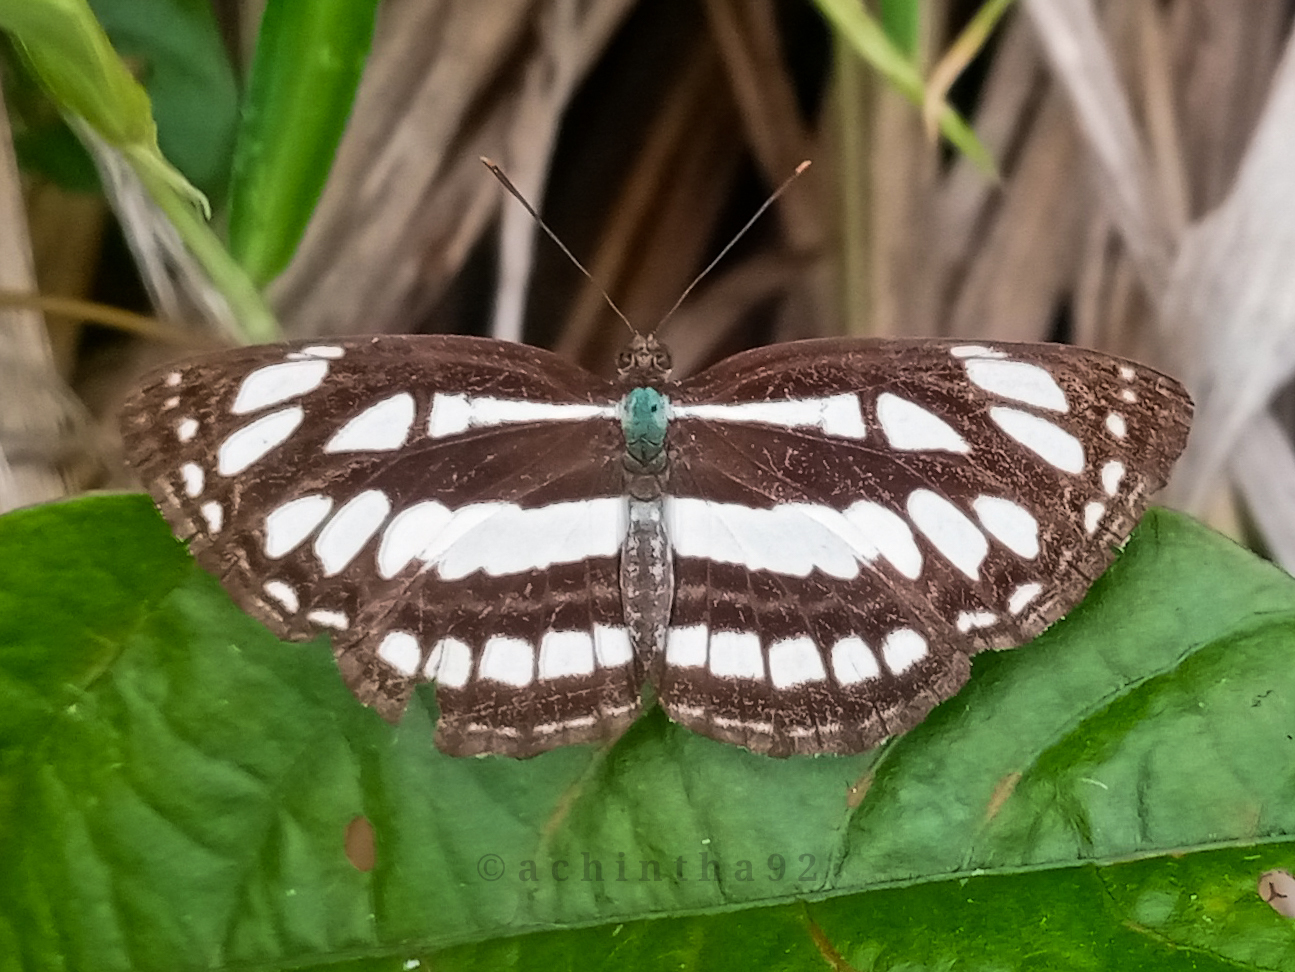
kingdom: Animalia
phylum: Arthropoda
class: Insecta
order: Lepidoptera
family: Nymphalidae
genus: Neptis
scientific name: Neptis hylas
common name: Common sailer
